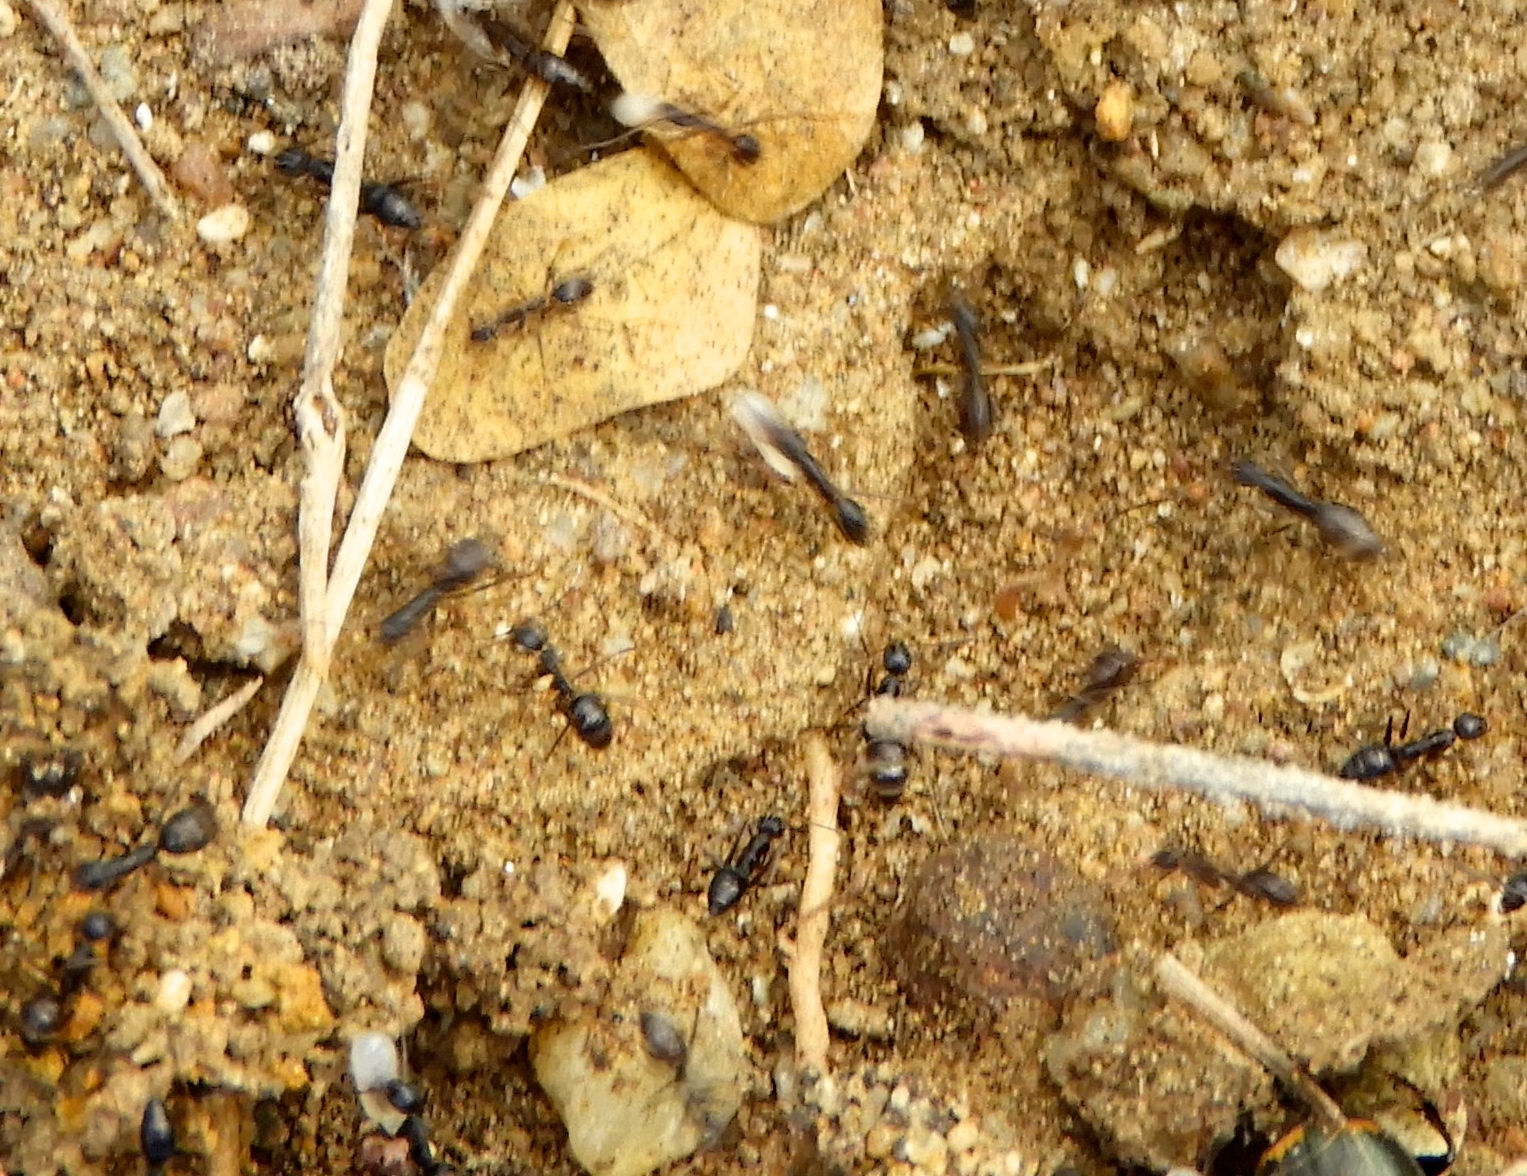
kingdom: Animalia
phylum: Arthropoda
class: Insecta
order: Hymenoptera
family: Formicidae
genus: Paratrechina
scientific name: Paratrechina longicornis
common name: Longhorned crazy ant
